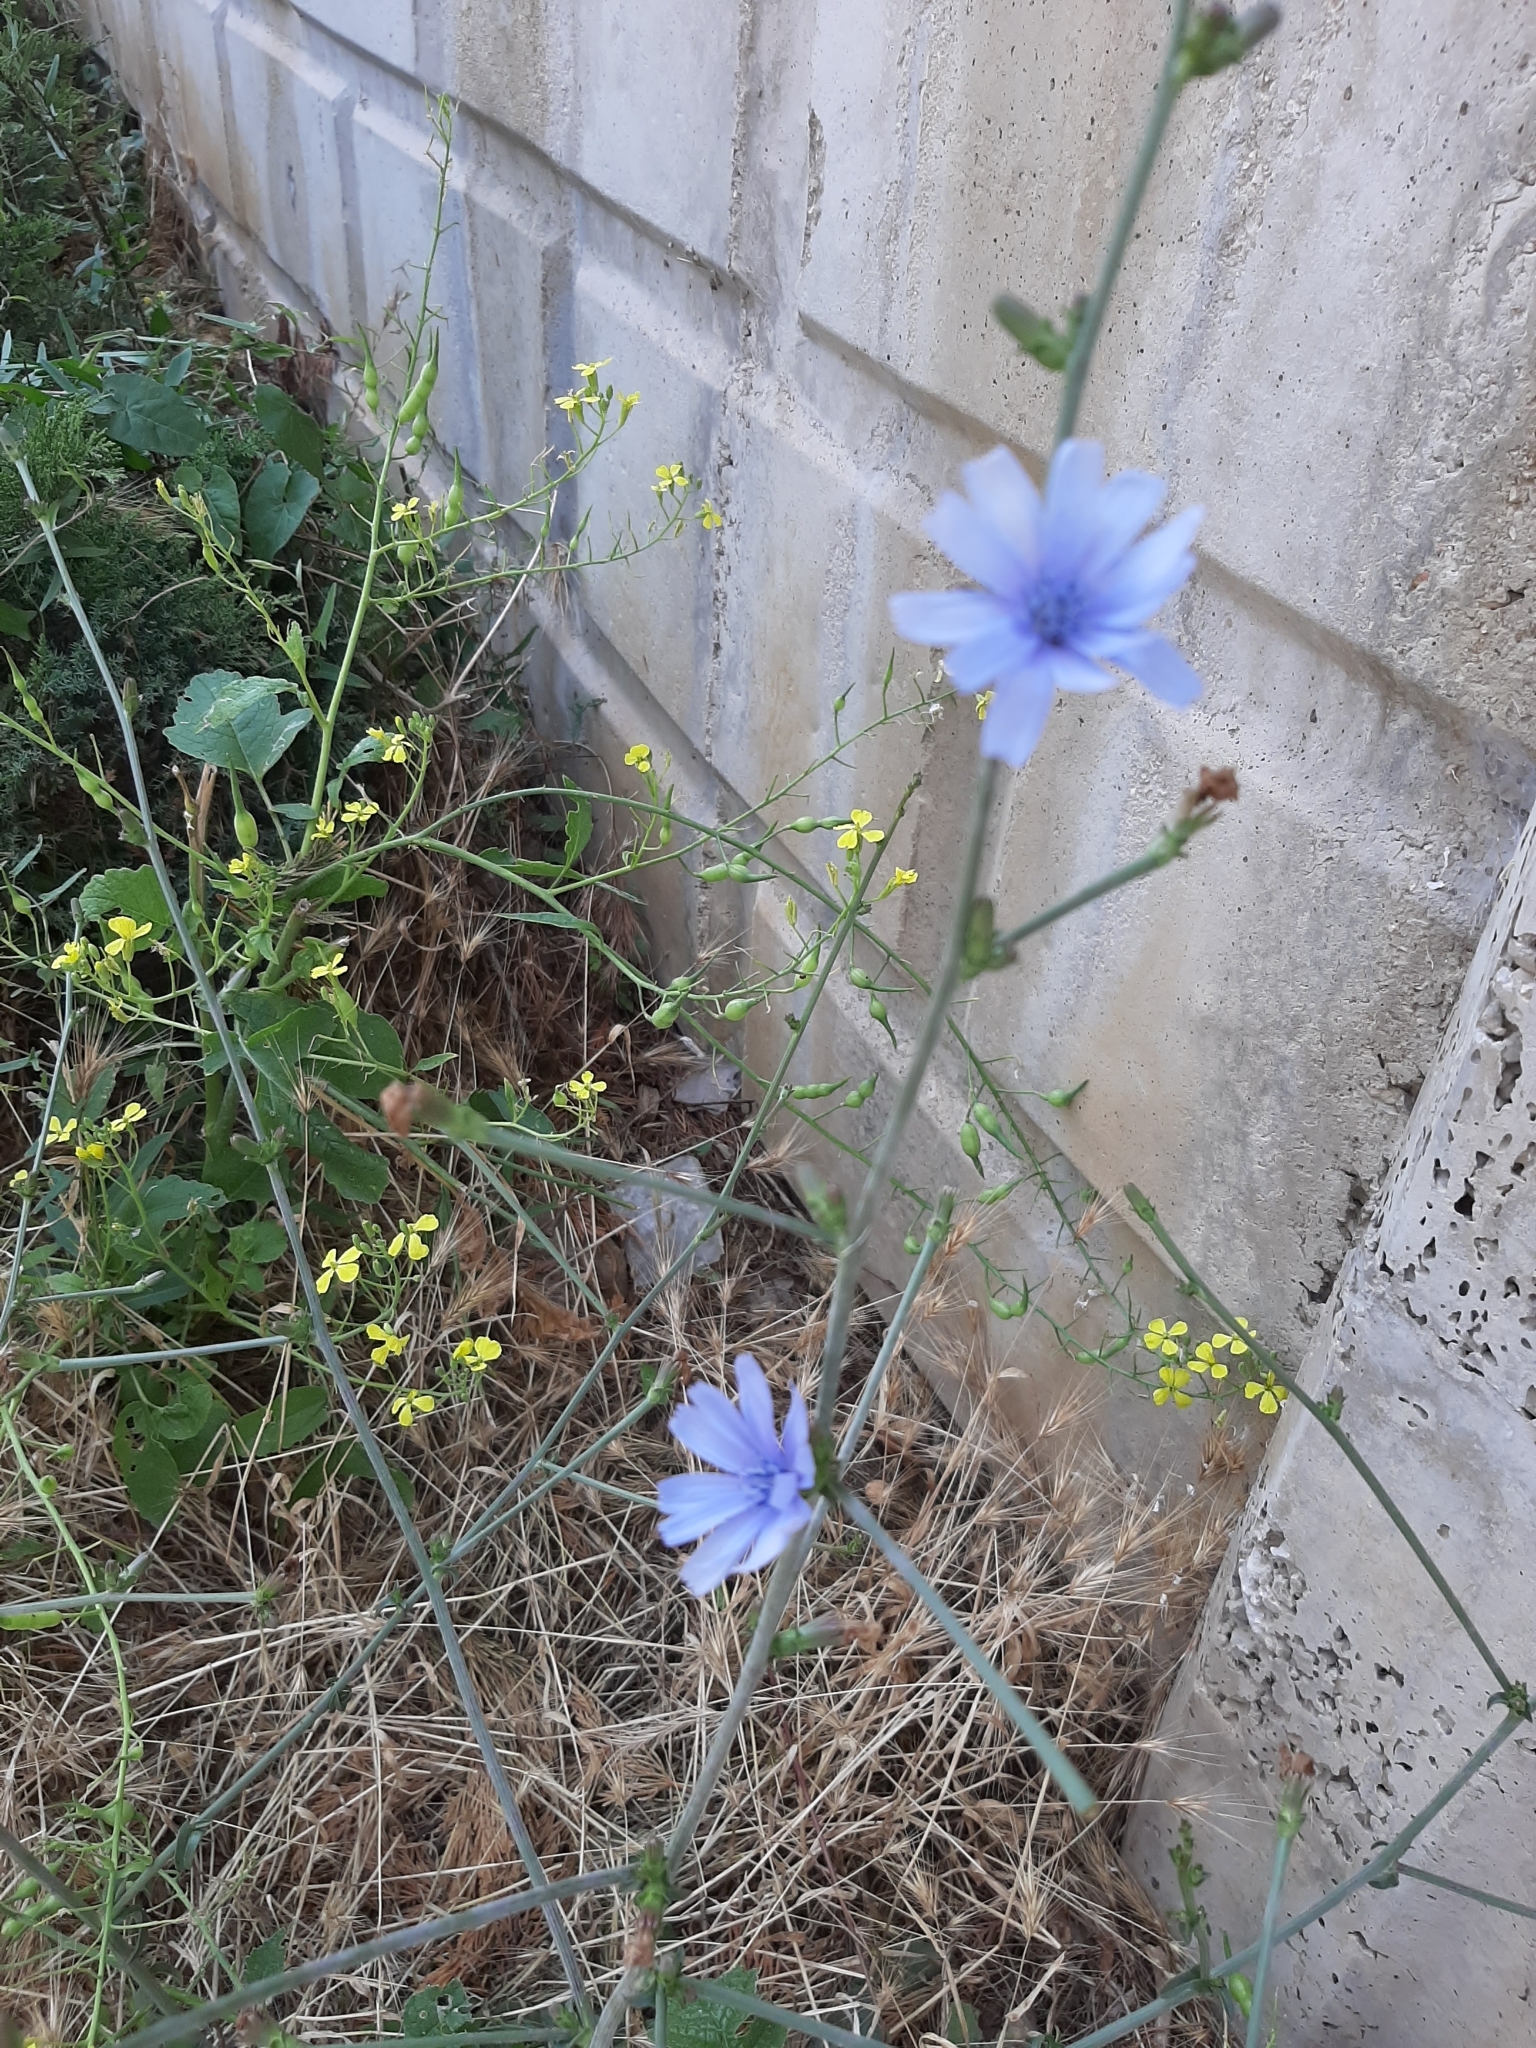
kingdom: Plantae
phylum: Tracheophyta
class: Magnoliopsida
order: Asterales
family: Asteraceae
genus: Cichorium
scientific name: Cichorium intybus
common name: Chicory
